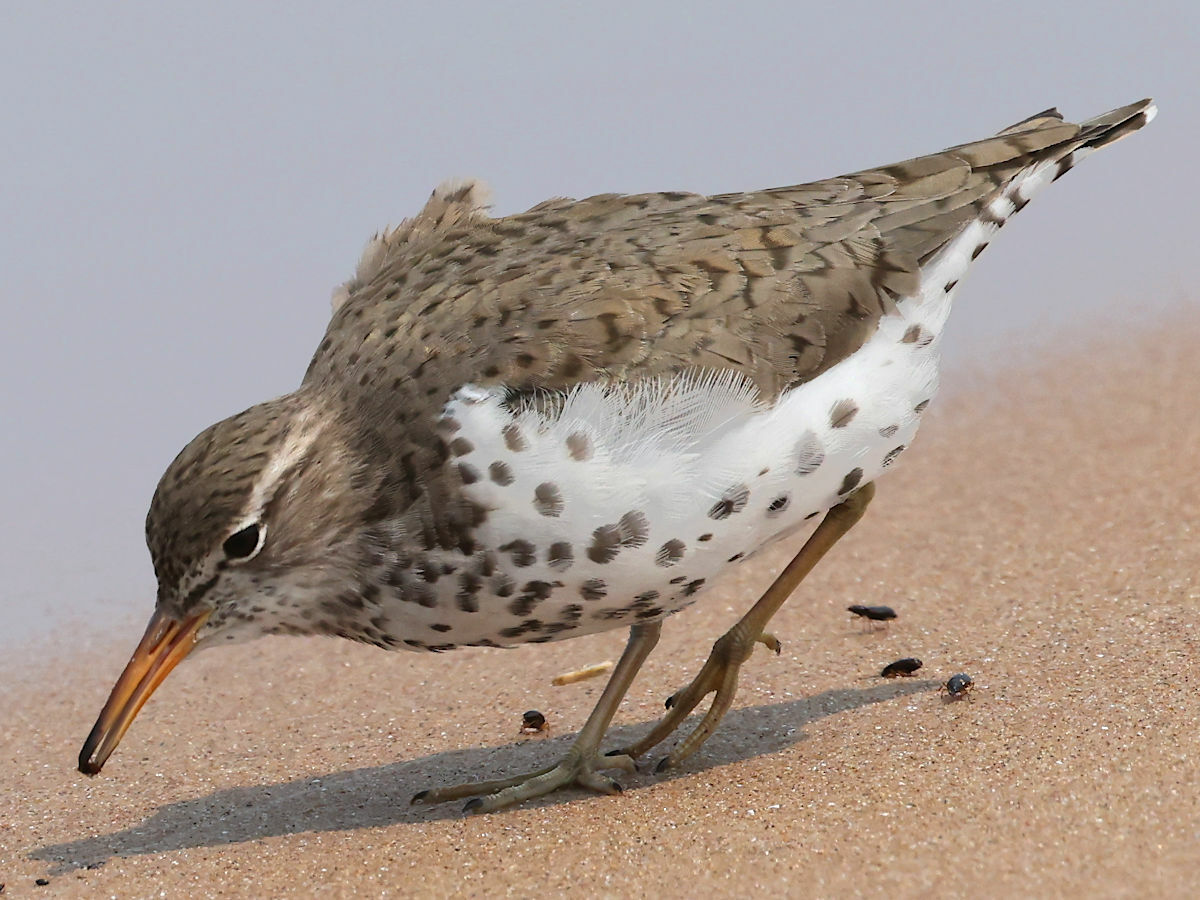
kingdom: Animalia
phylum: Chordata
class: Aves
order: Charadriiformes
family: Scolopacidae
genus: Actitis
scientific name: Actitis macularius
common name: Spotted sandpiper
